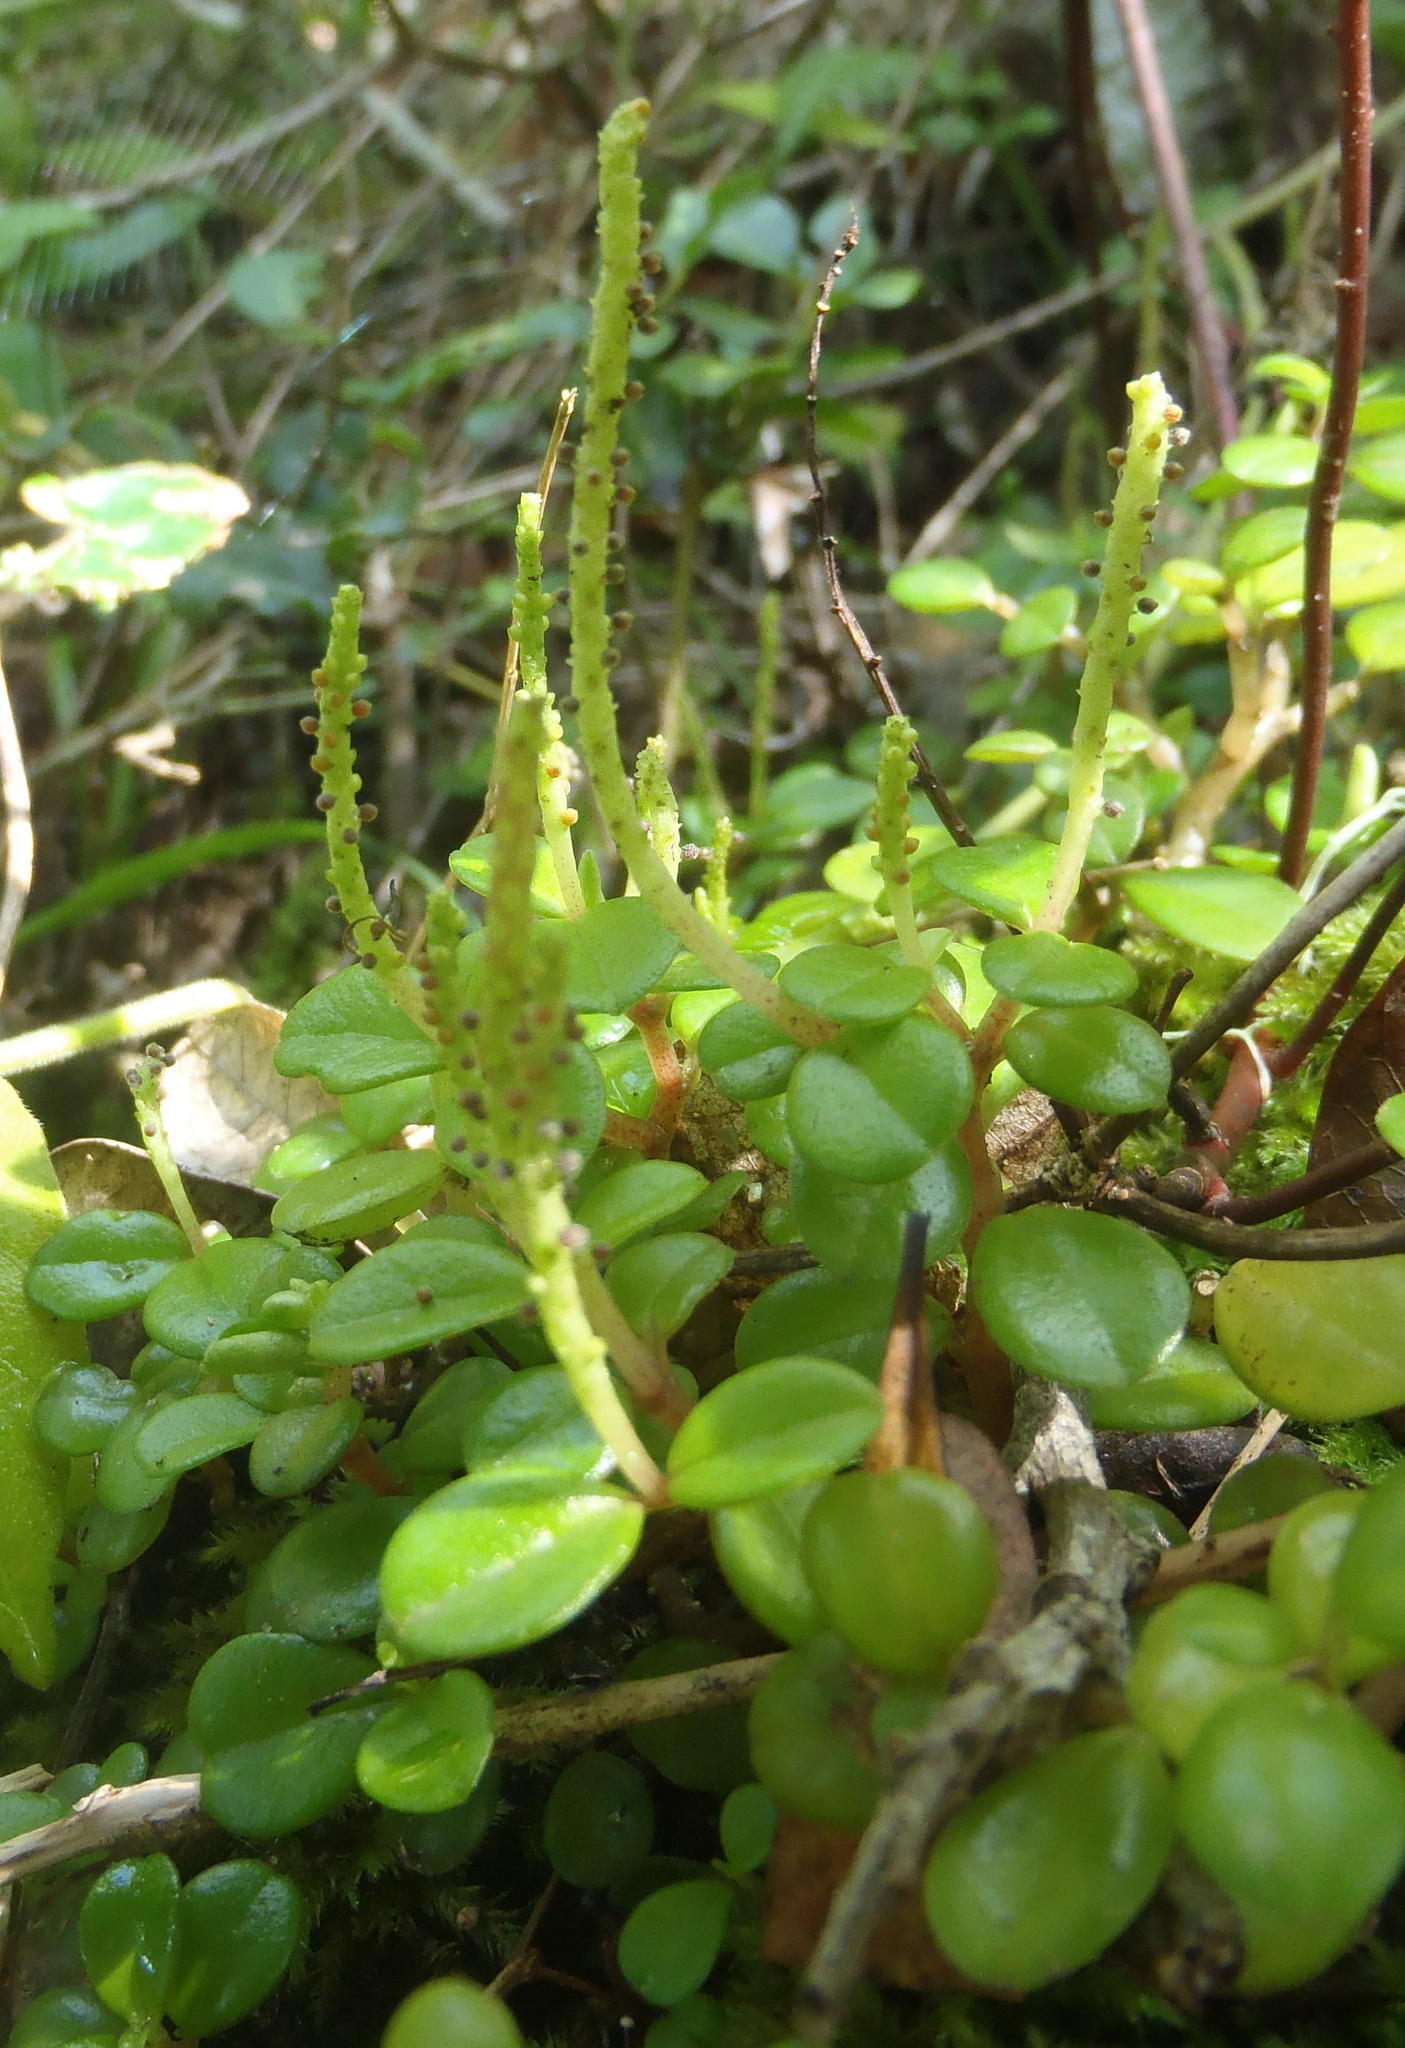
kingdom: Plantae
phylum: Tracheophyta
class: Magnoliopsida
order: Piperales
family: Piperaceae
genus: Peperomia
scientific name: Peperomia retusa
